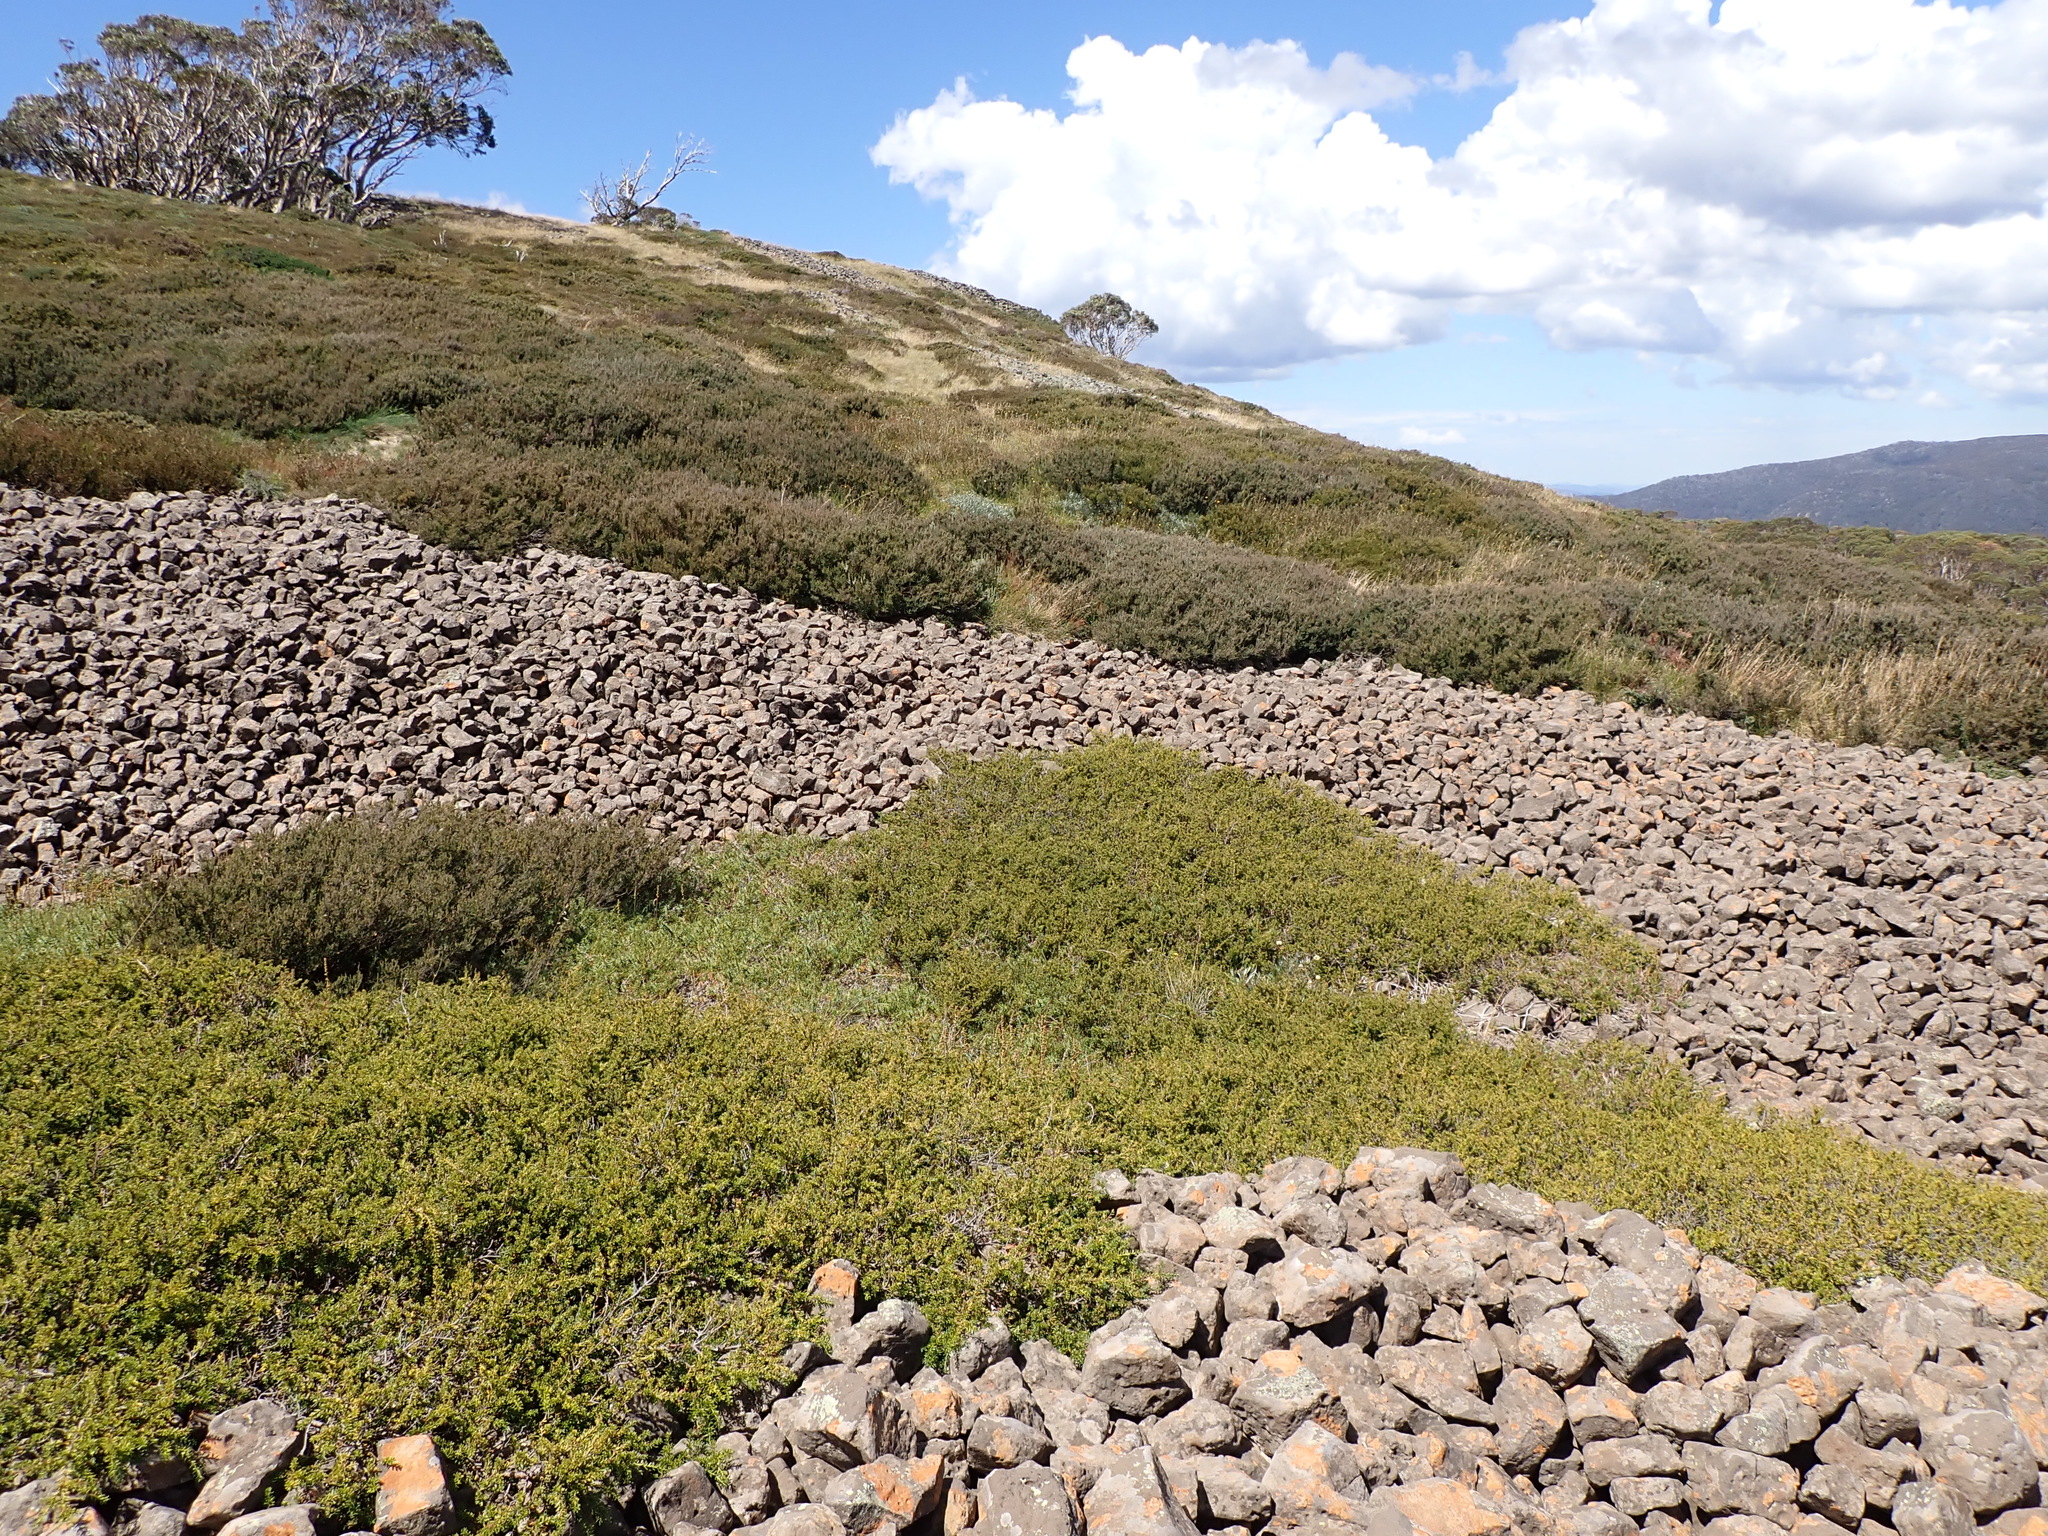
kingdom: Plantae
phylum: Tracheophyta
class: Pinopsida
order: Pinales
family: Podocarpaceae
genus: Podocarpus
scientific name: Podocarpus lawrencei
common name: Mountain plum pine
